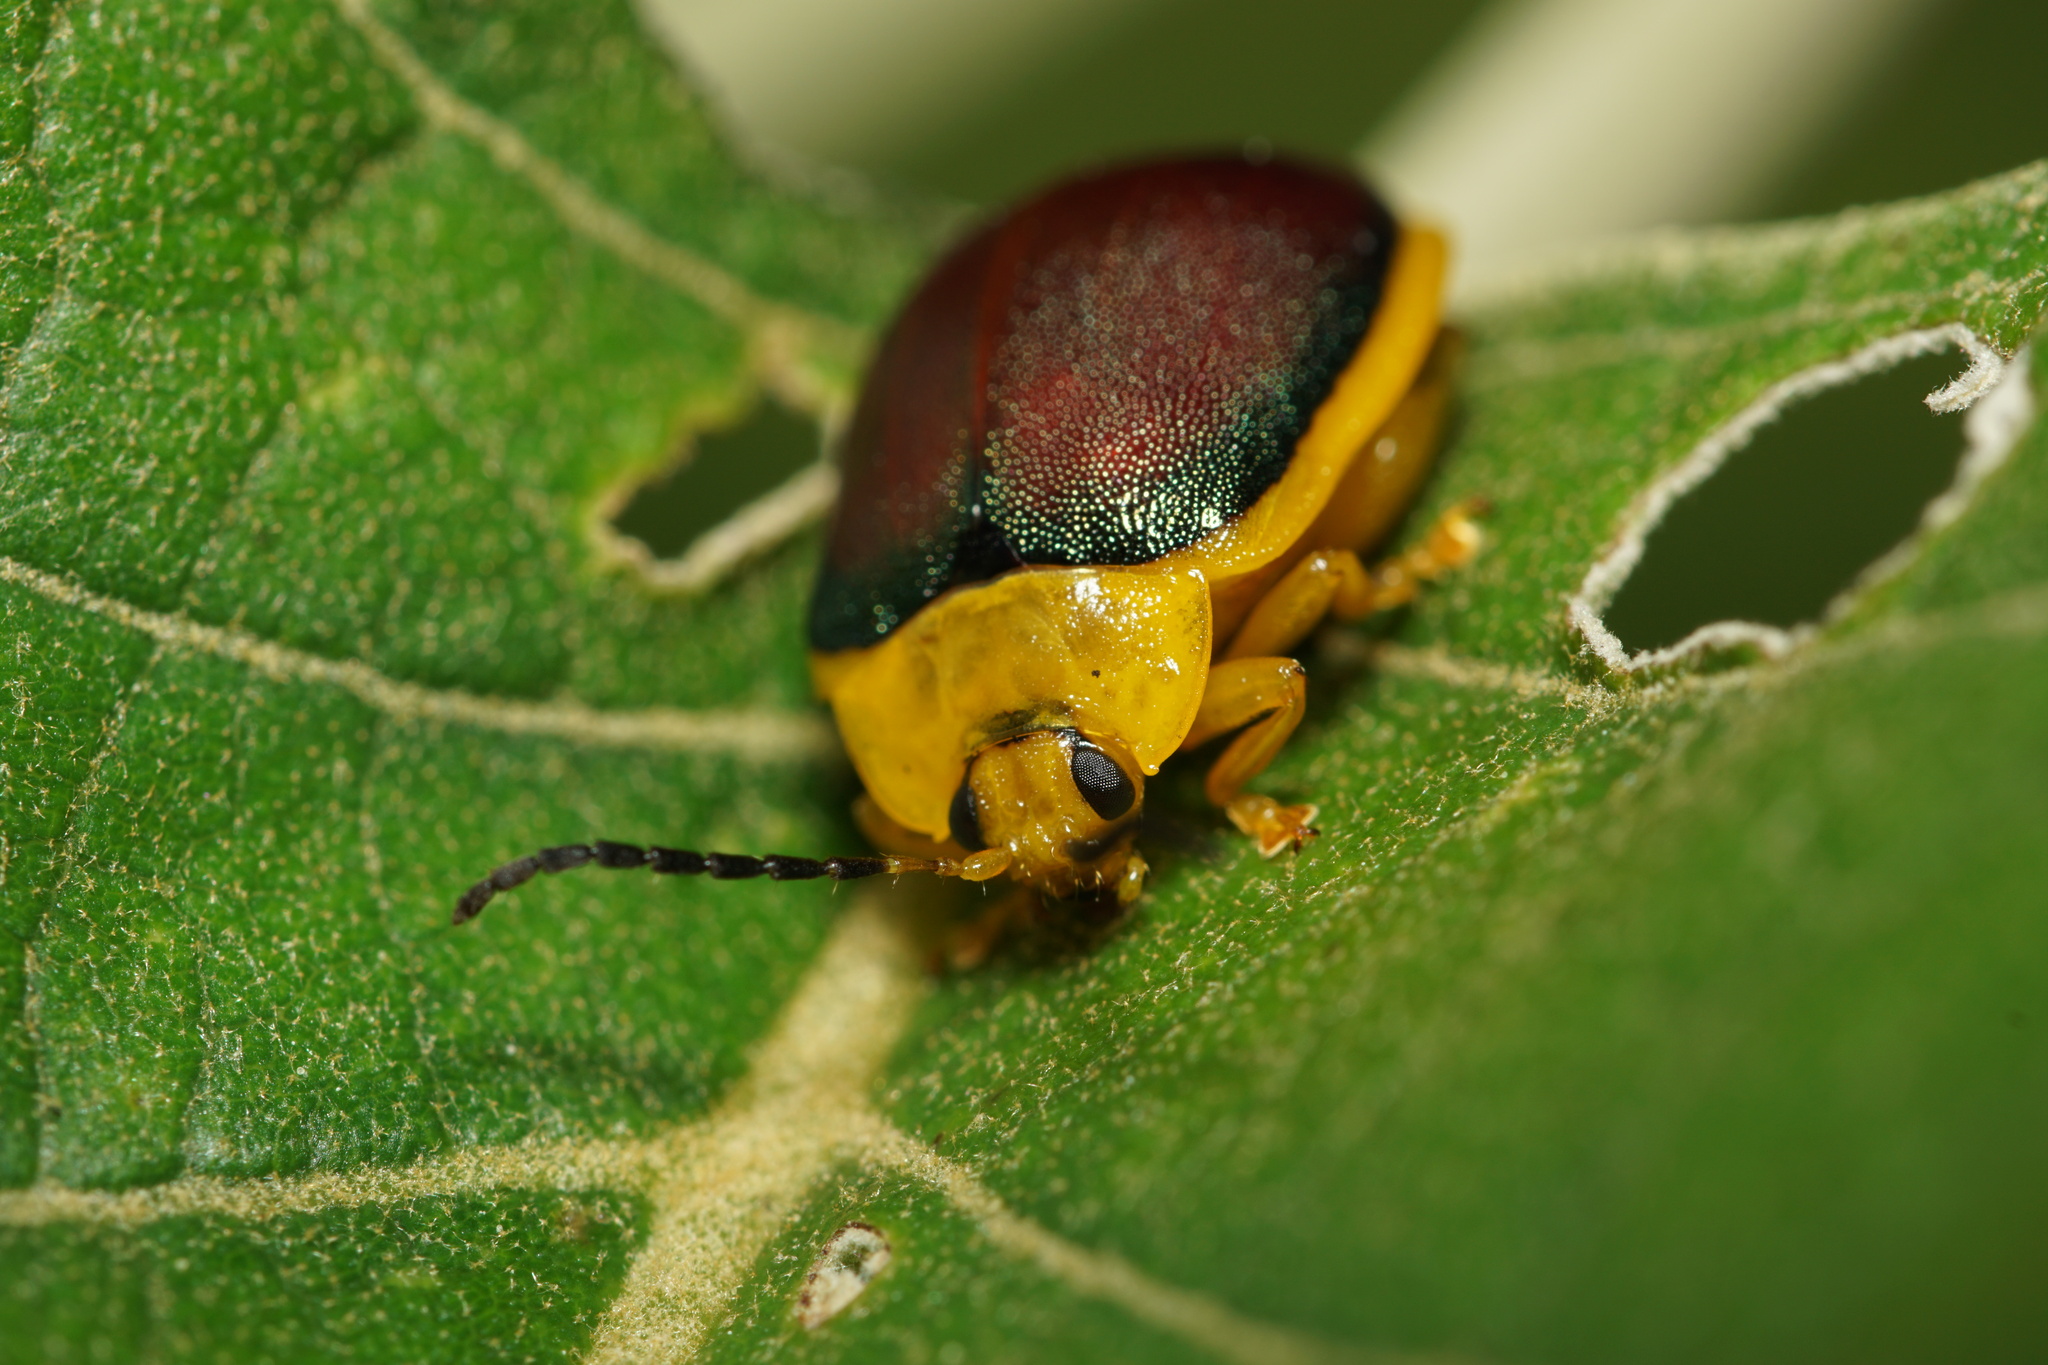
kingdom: Animalia
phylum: Arthropoda
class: Insecta
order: Coleoptera
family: Chrysomelidae
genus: Paranaita
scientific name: Paranaita
